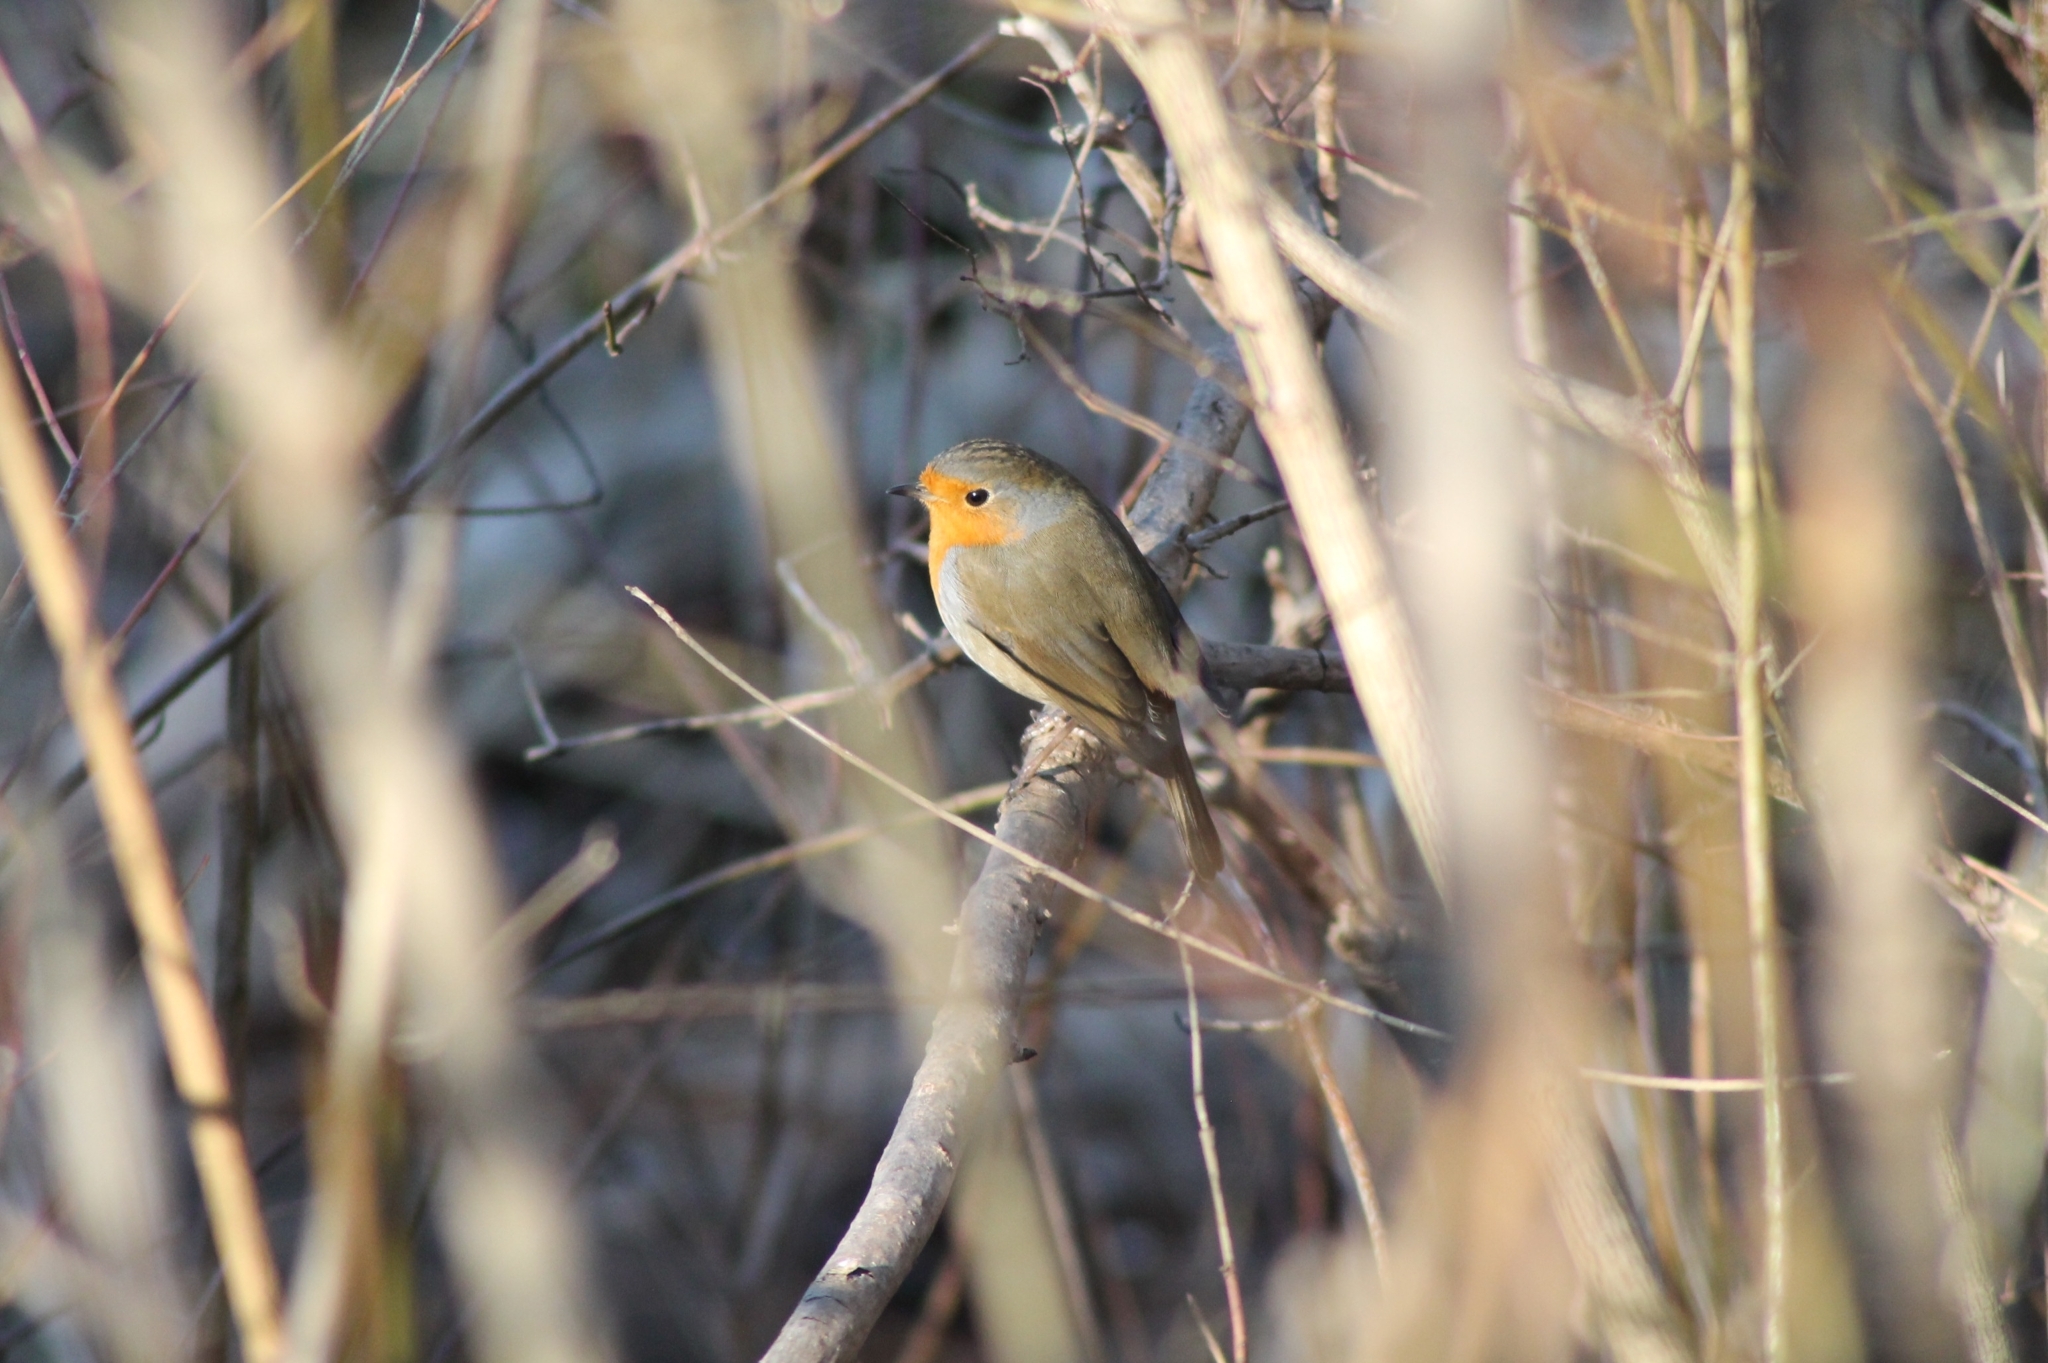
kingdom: Animalia
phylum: Chordata
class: Aves
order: Passeriformes
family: Muscicapidae
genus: Erithacus
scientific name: Erithacus rubecula
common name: European robin
